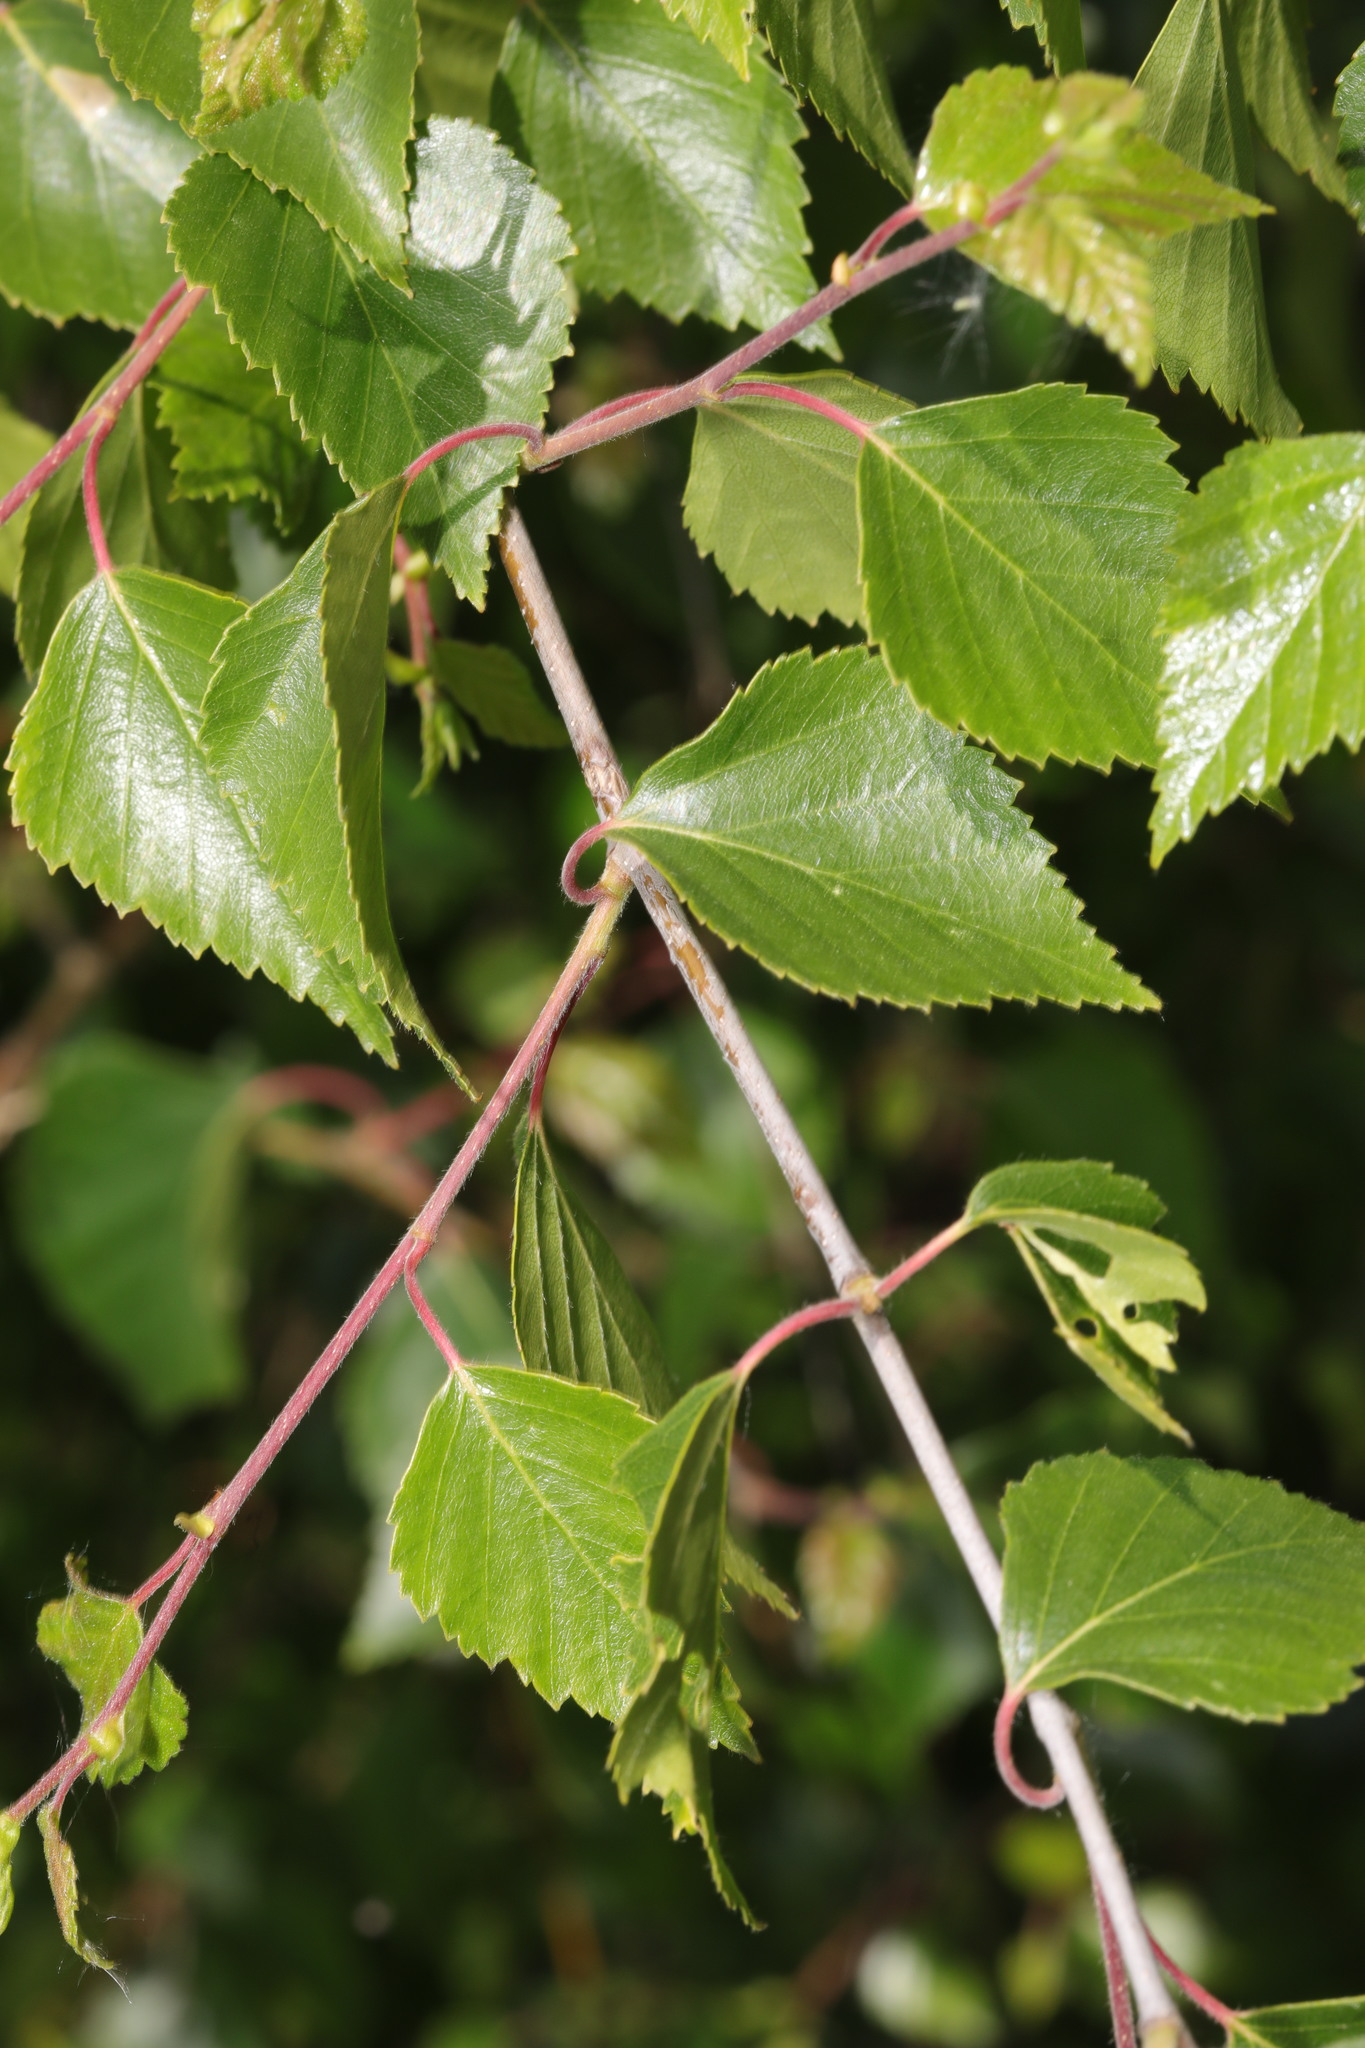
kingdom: Plantae
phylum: Tracheophyta
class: Magnoliopsida
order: Fagales
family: Betulaceae
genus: Betula
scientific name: Betula pendula
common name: Silver birch
